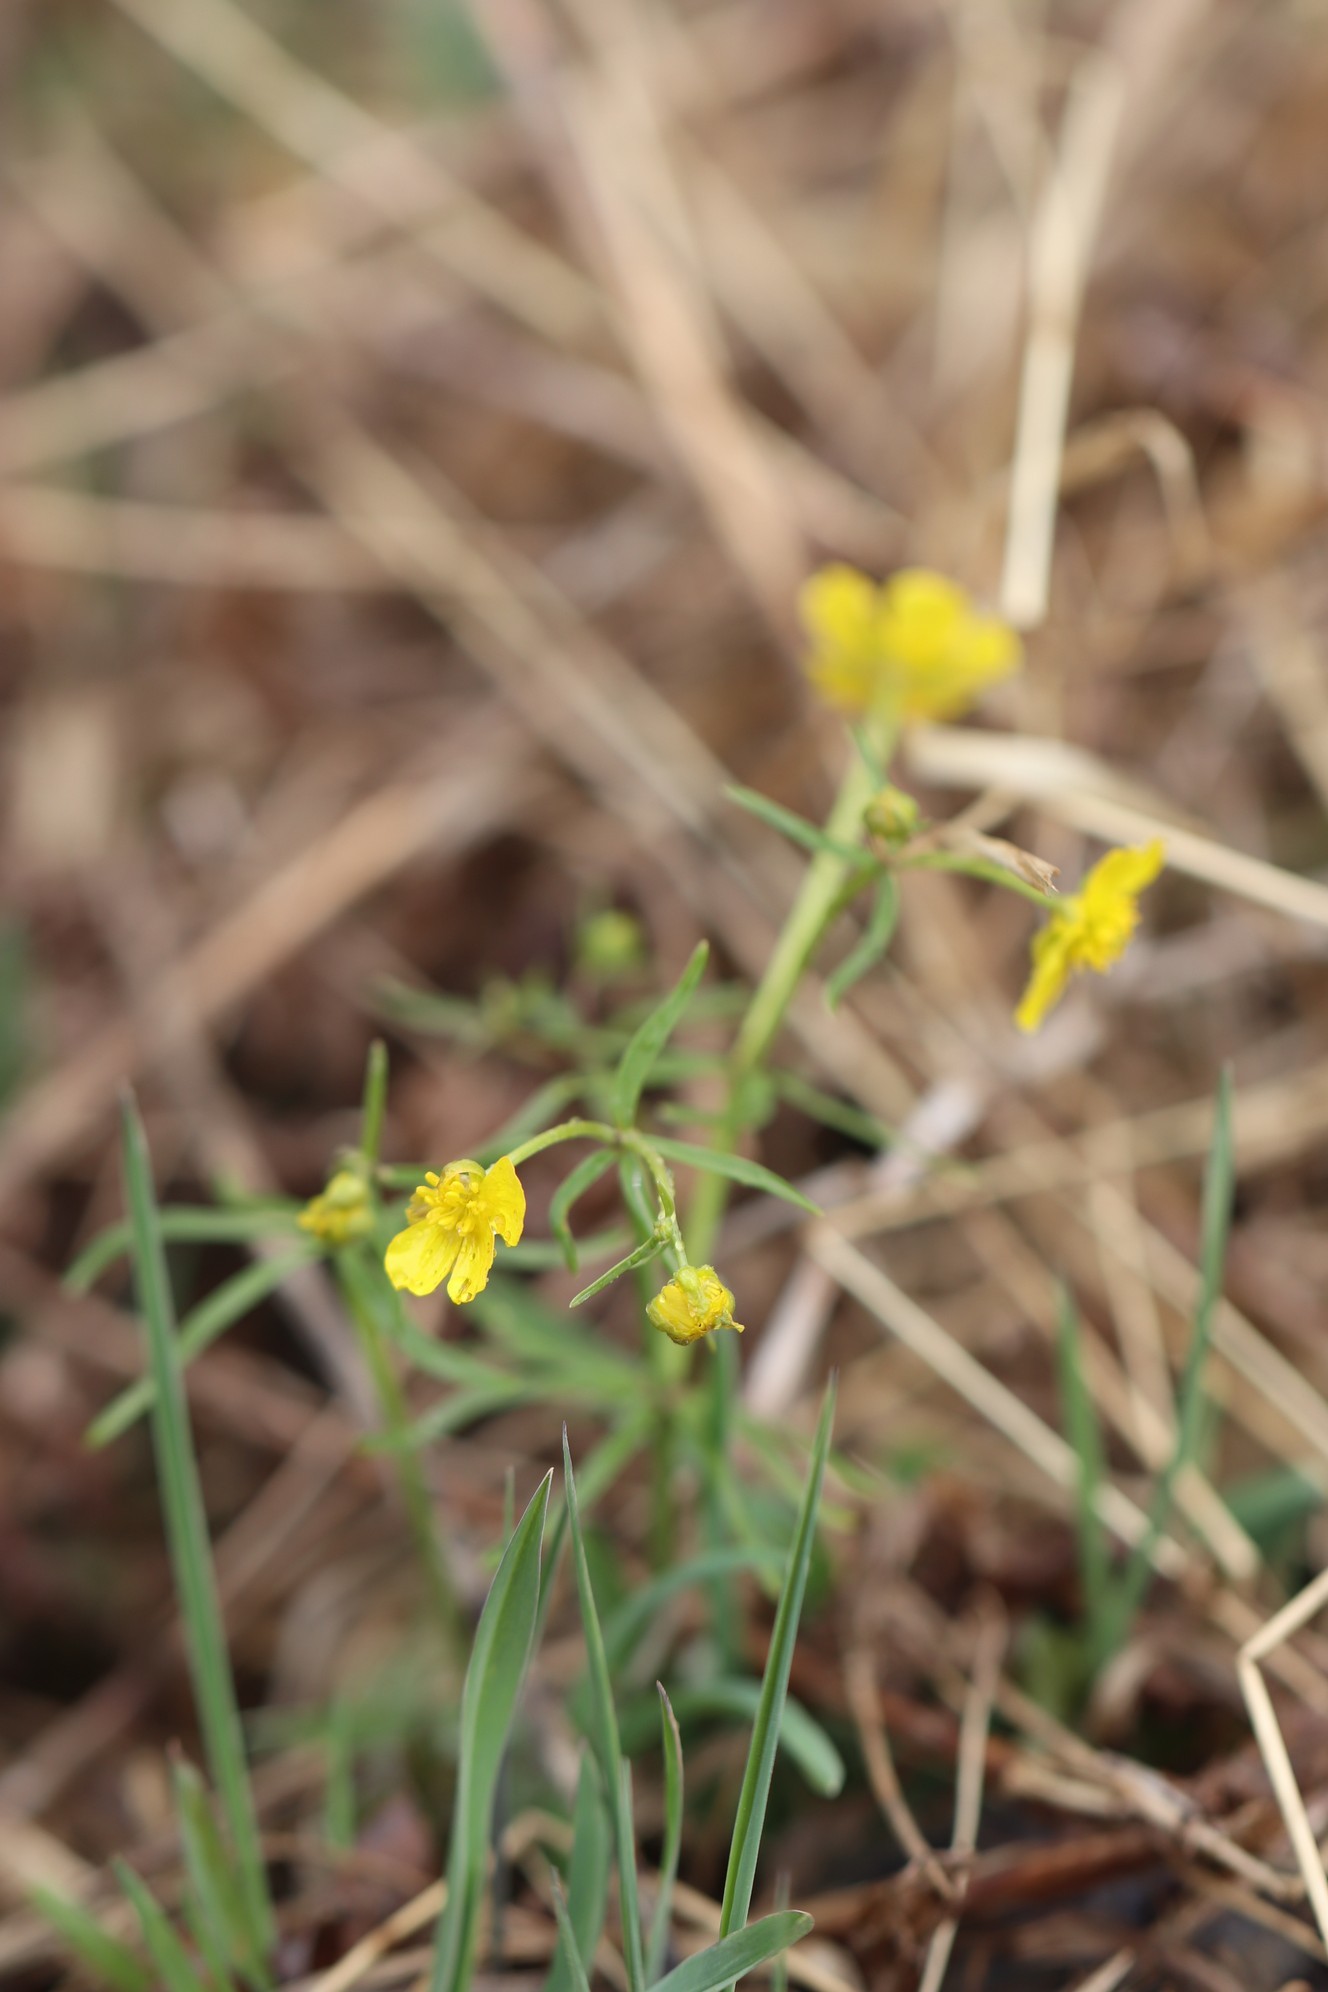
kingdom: Plantae
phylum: Tracheophyta
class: Magnoliopsida
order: Ranunculales
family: Ranunculaceae
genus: Ranunculus
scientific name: Ranunculus monophyllus
